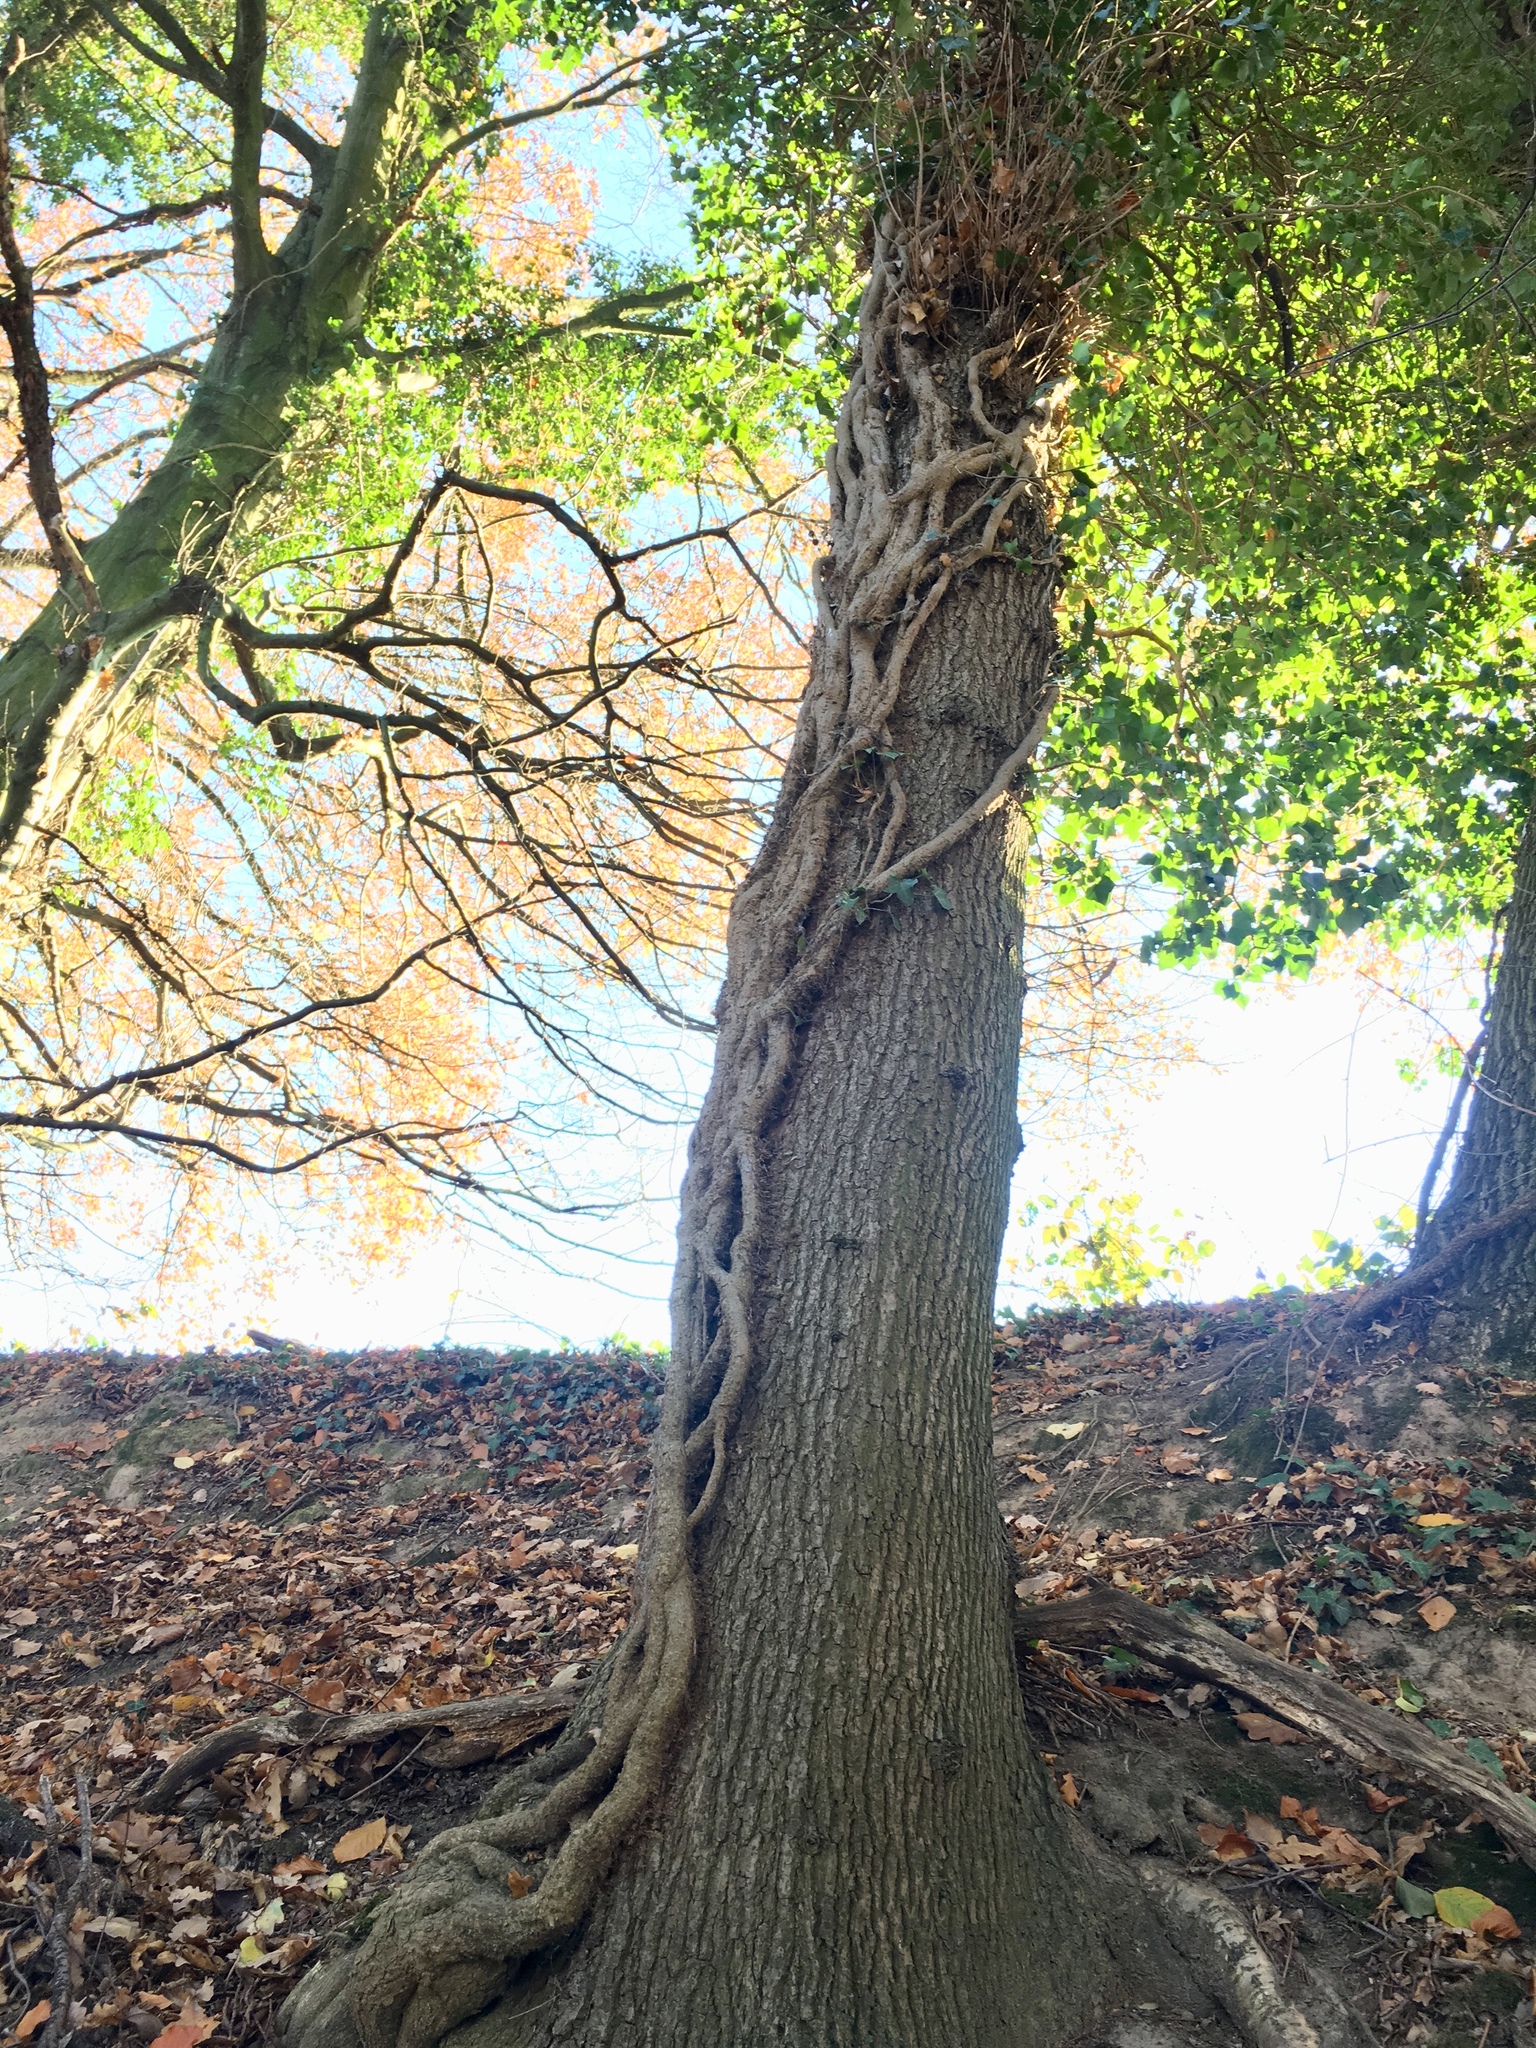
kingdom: Plantae
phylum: Tracheophyta
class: Magnoliopsida
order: Apiales
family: Araliaceae
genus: Hedera
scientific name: Hedera helix
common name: Ivy
